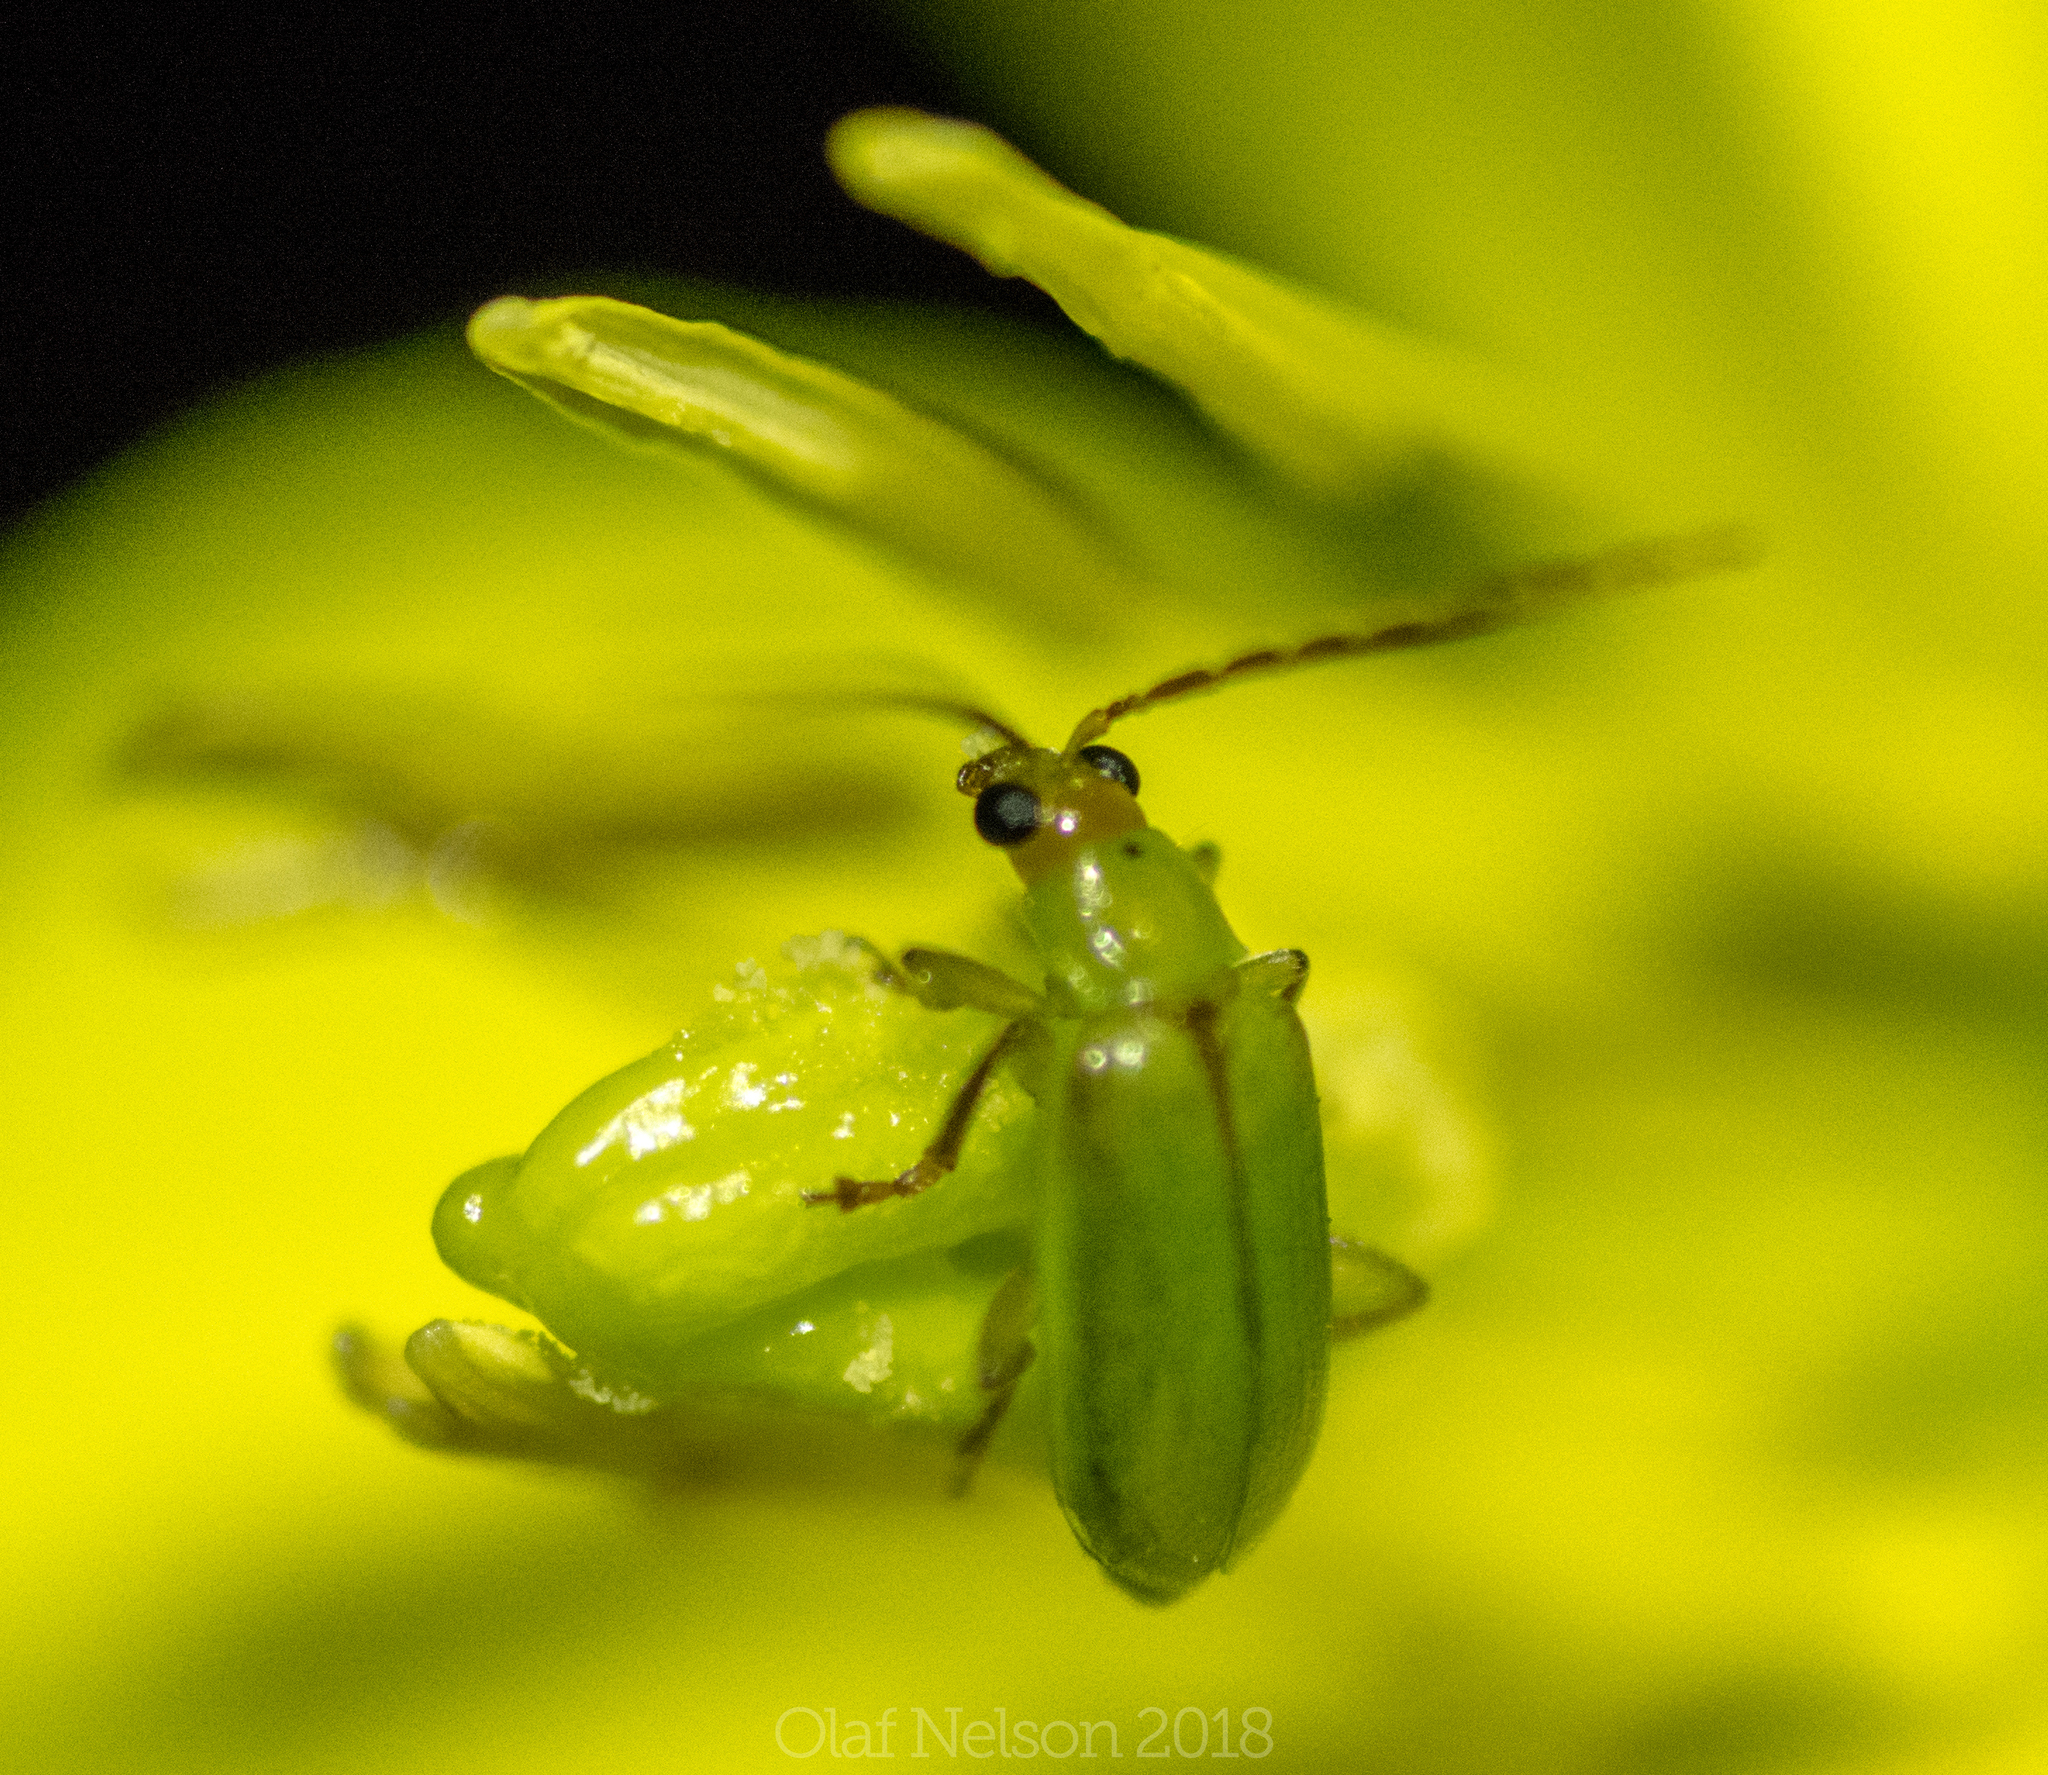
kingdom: Animalia
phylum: Arthropoda
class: Insecta
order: Coleoptera
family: Chrysomelidae
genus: Diabrotica
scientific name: Diabrotica barberi
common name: Northern corn rootworm
